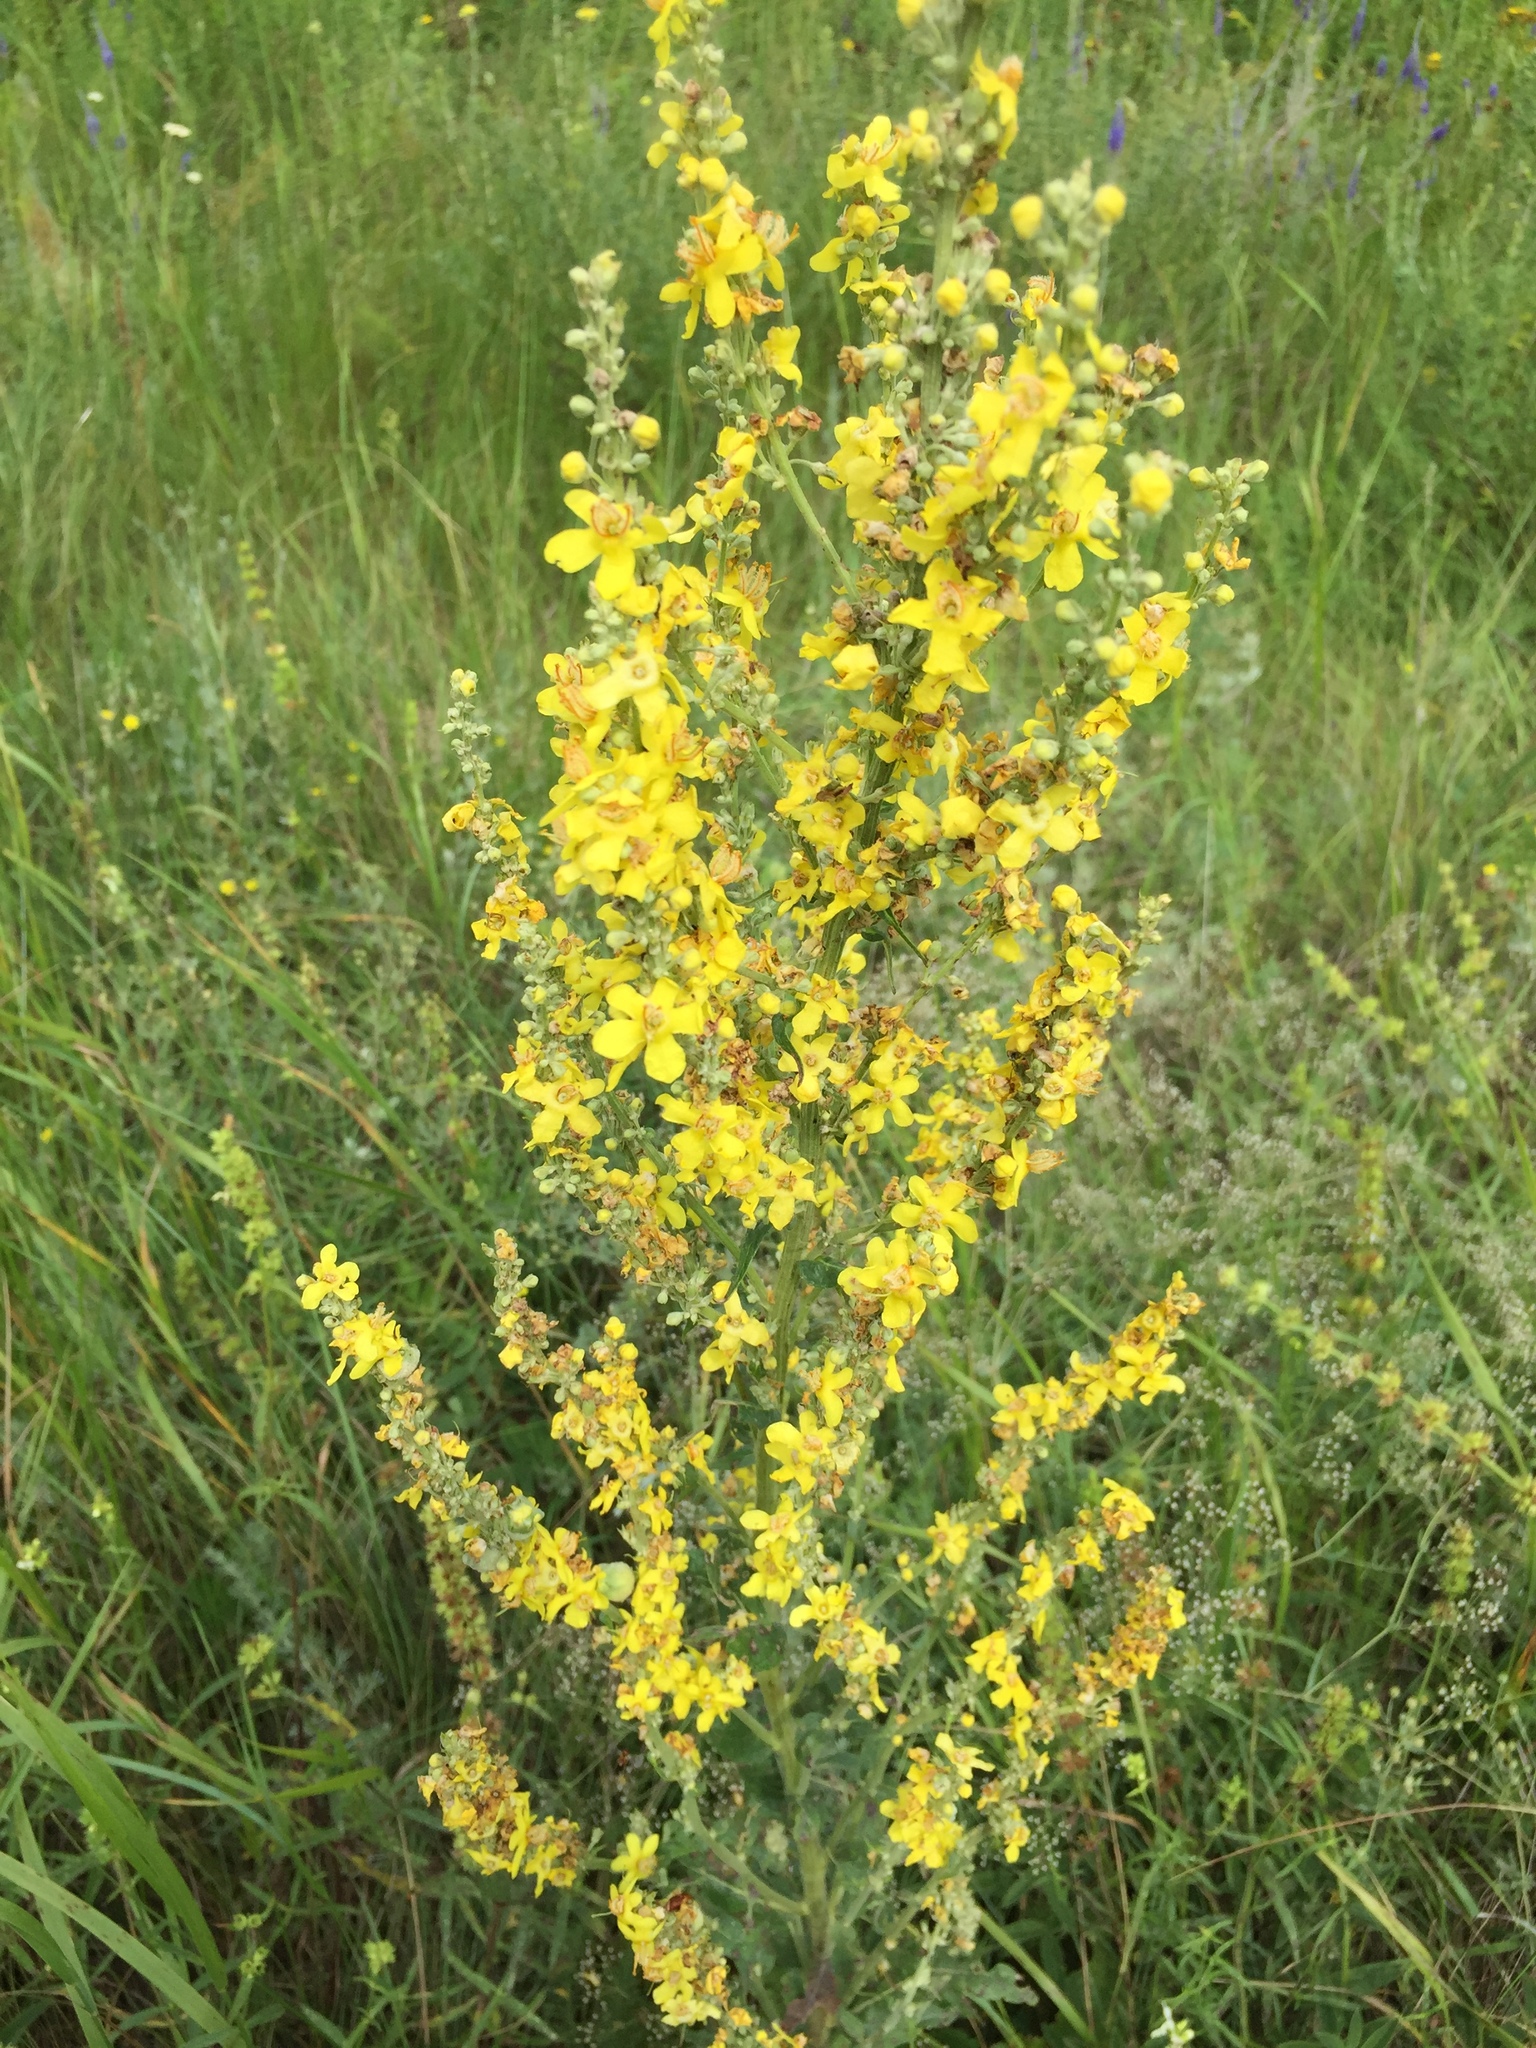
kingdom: Plantae
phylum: Tracheophyta
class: Magnoliopsida
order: Lamiales
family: Scrophulariaceae
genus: Verbascum
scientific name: Verbascum lychnitis
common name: White mullein
